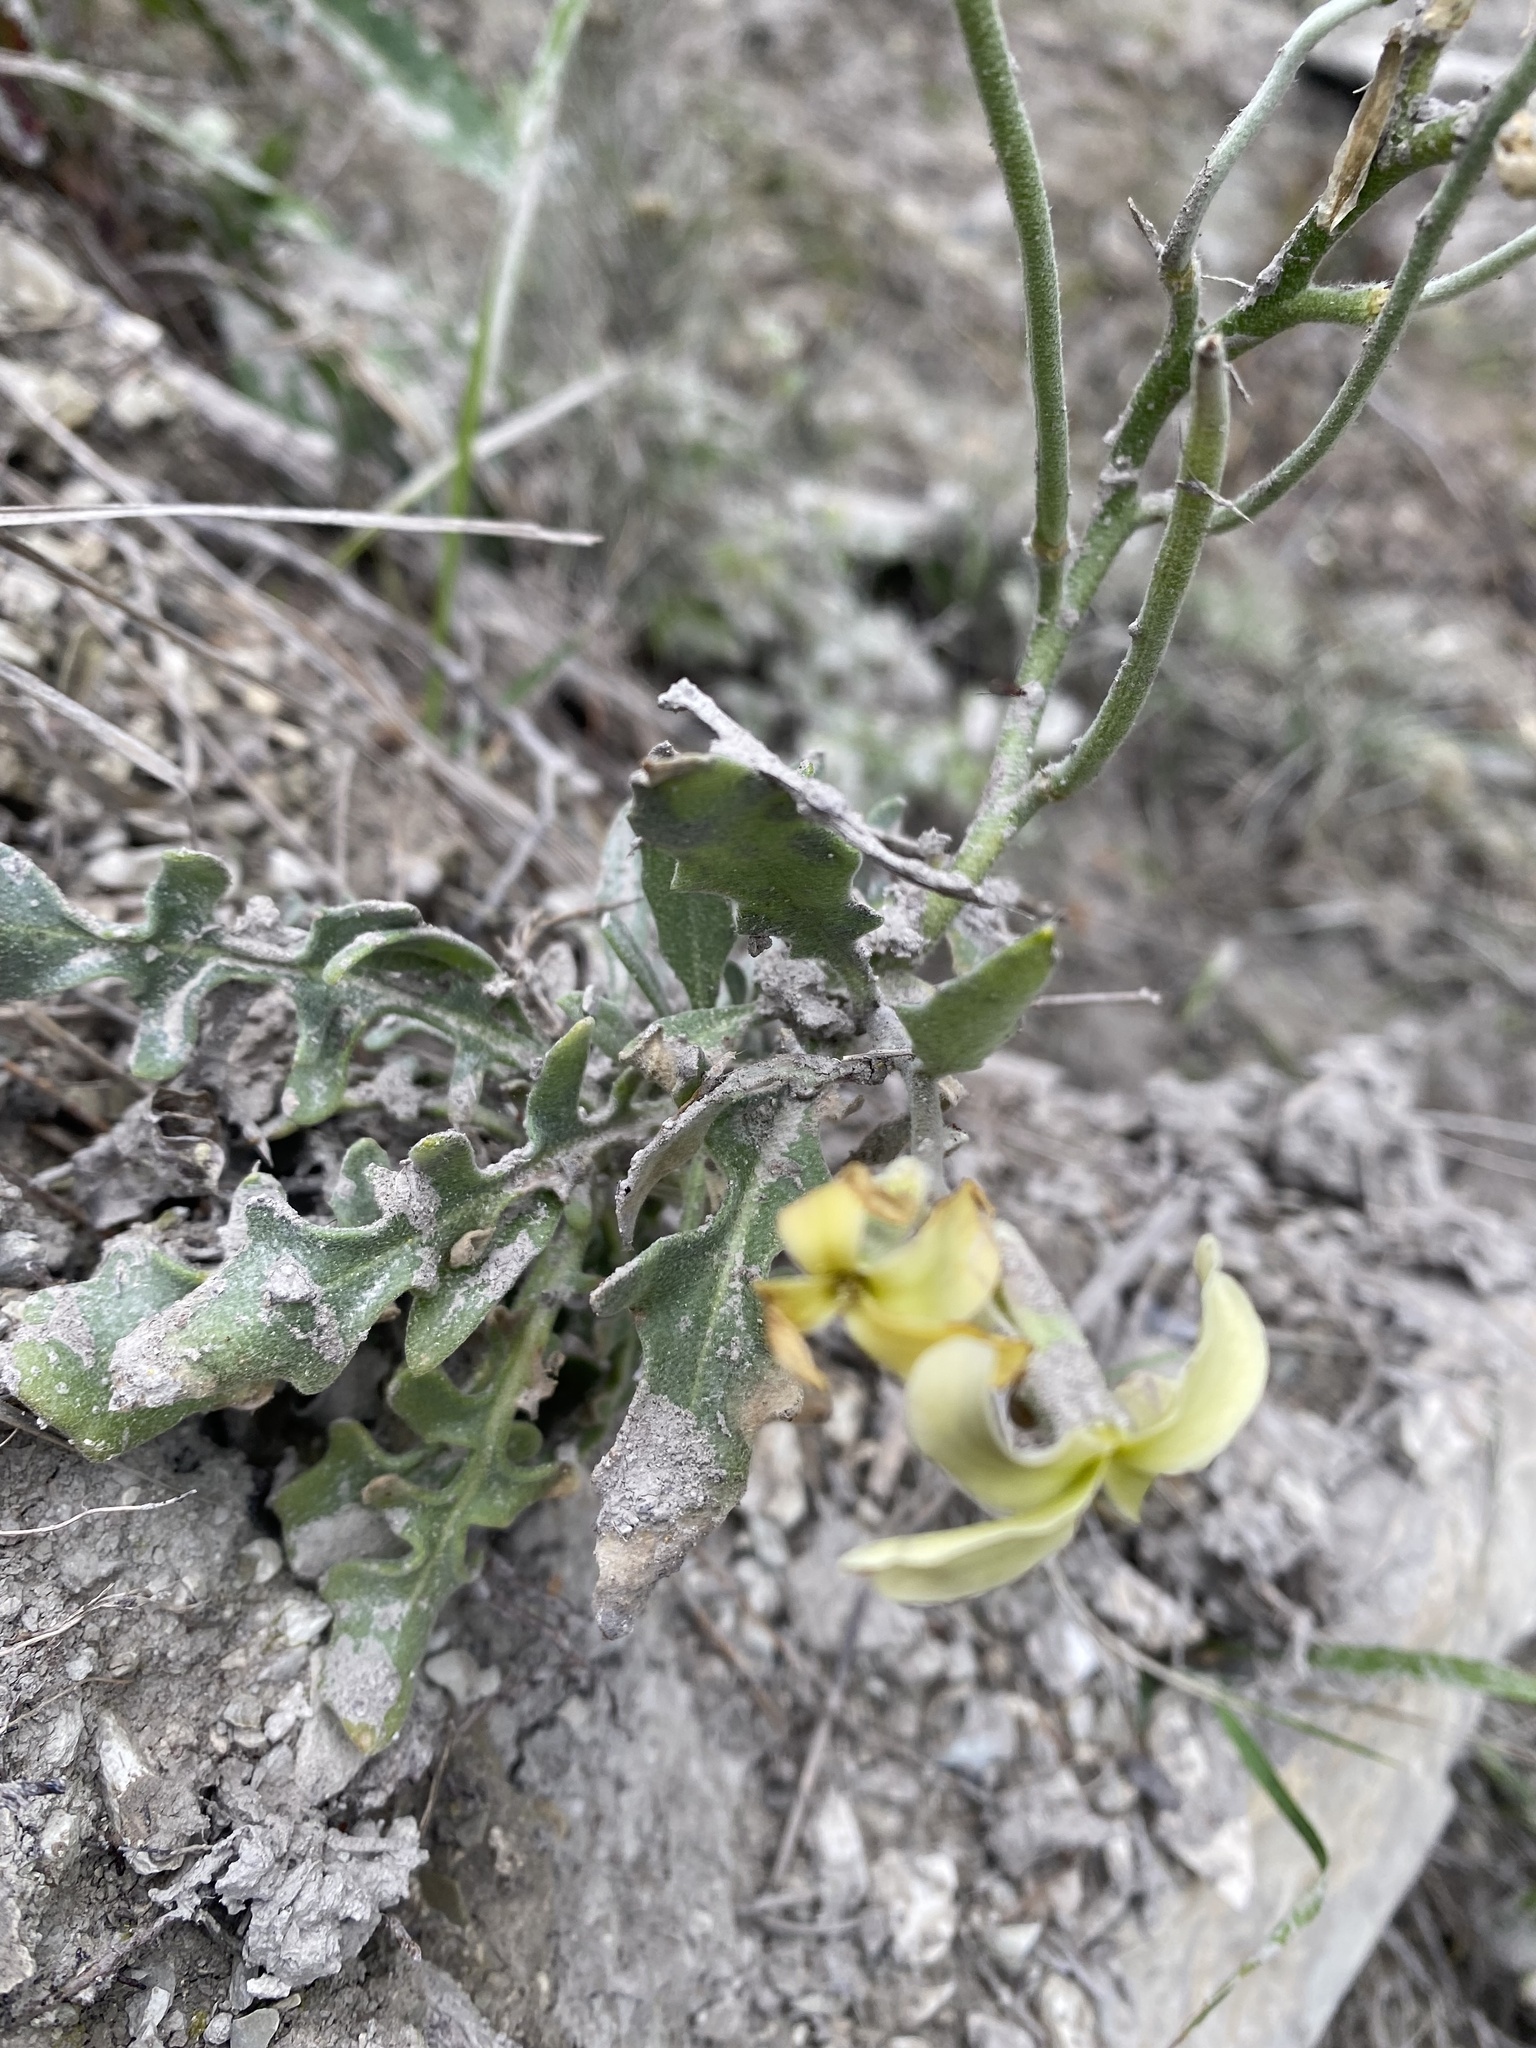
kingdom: Plantae
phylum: Tracheophyta
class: Magnoliopsida
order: Brassicales
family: Brassicaceae
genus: Matthiola
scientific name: Matthiola odoratissima
